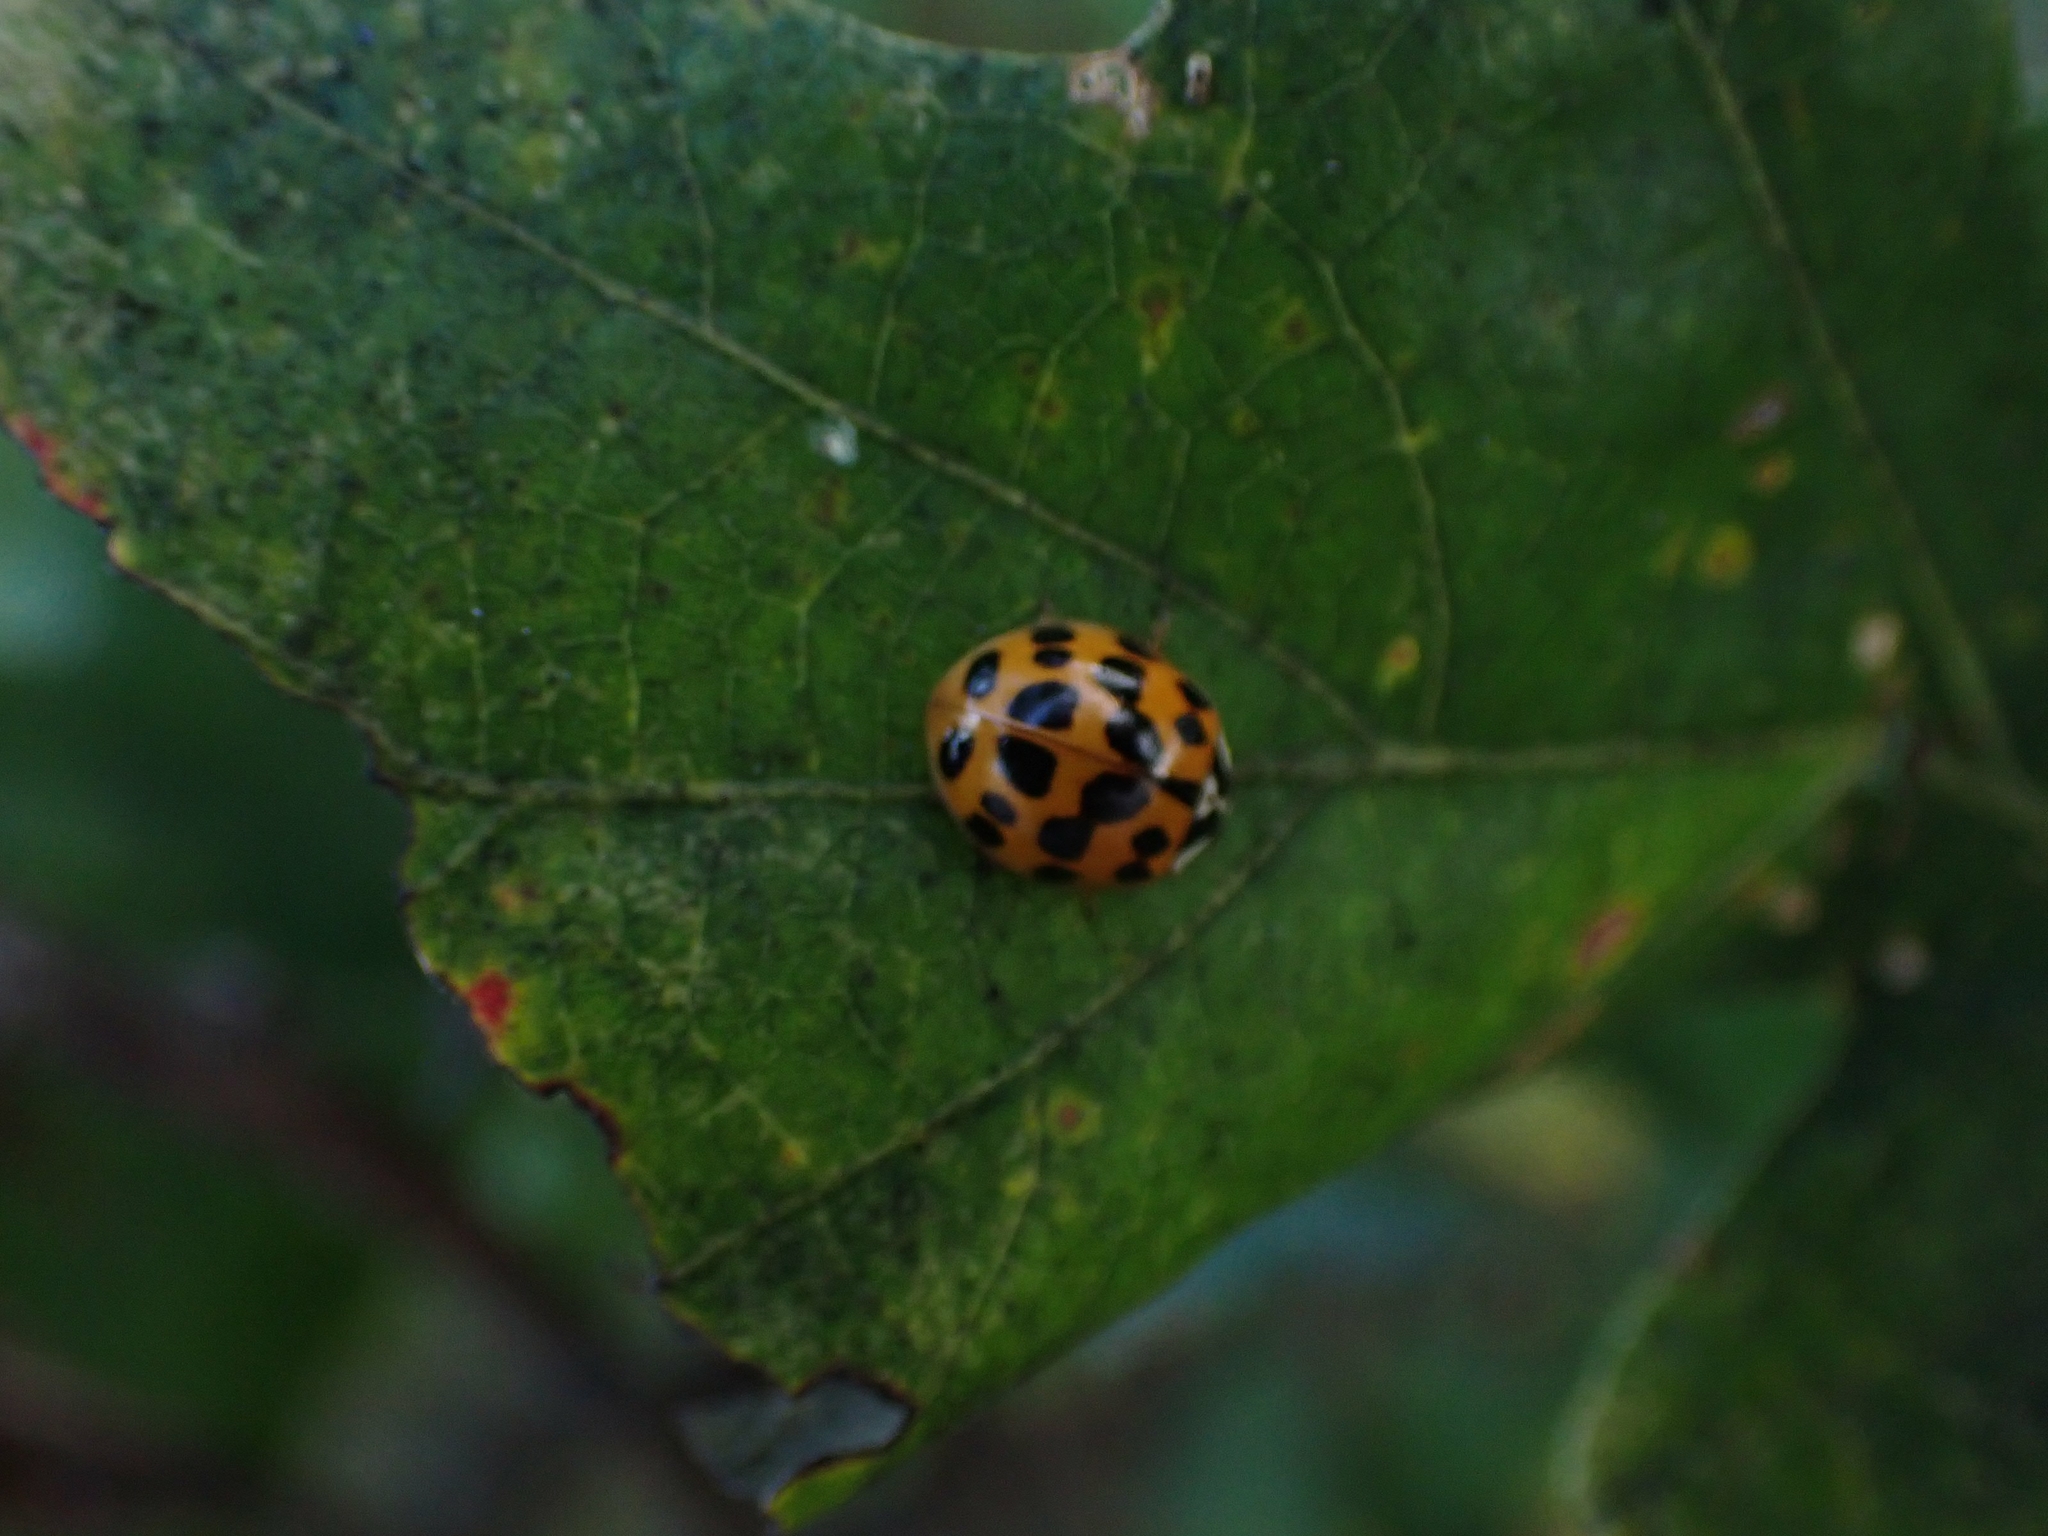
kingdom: Animalia
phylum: Arthropoda
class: Insecta
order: Coleoptera
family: Coccinellidae
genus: Harmonia
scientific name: Harmonia axyridis
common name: Harlequin ladybird
